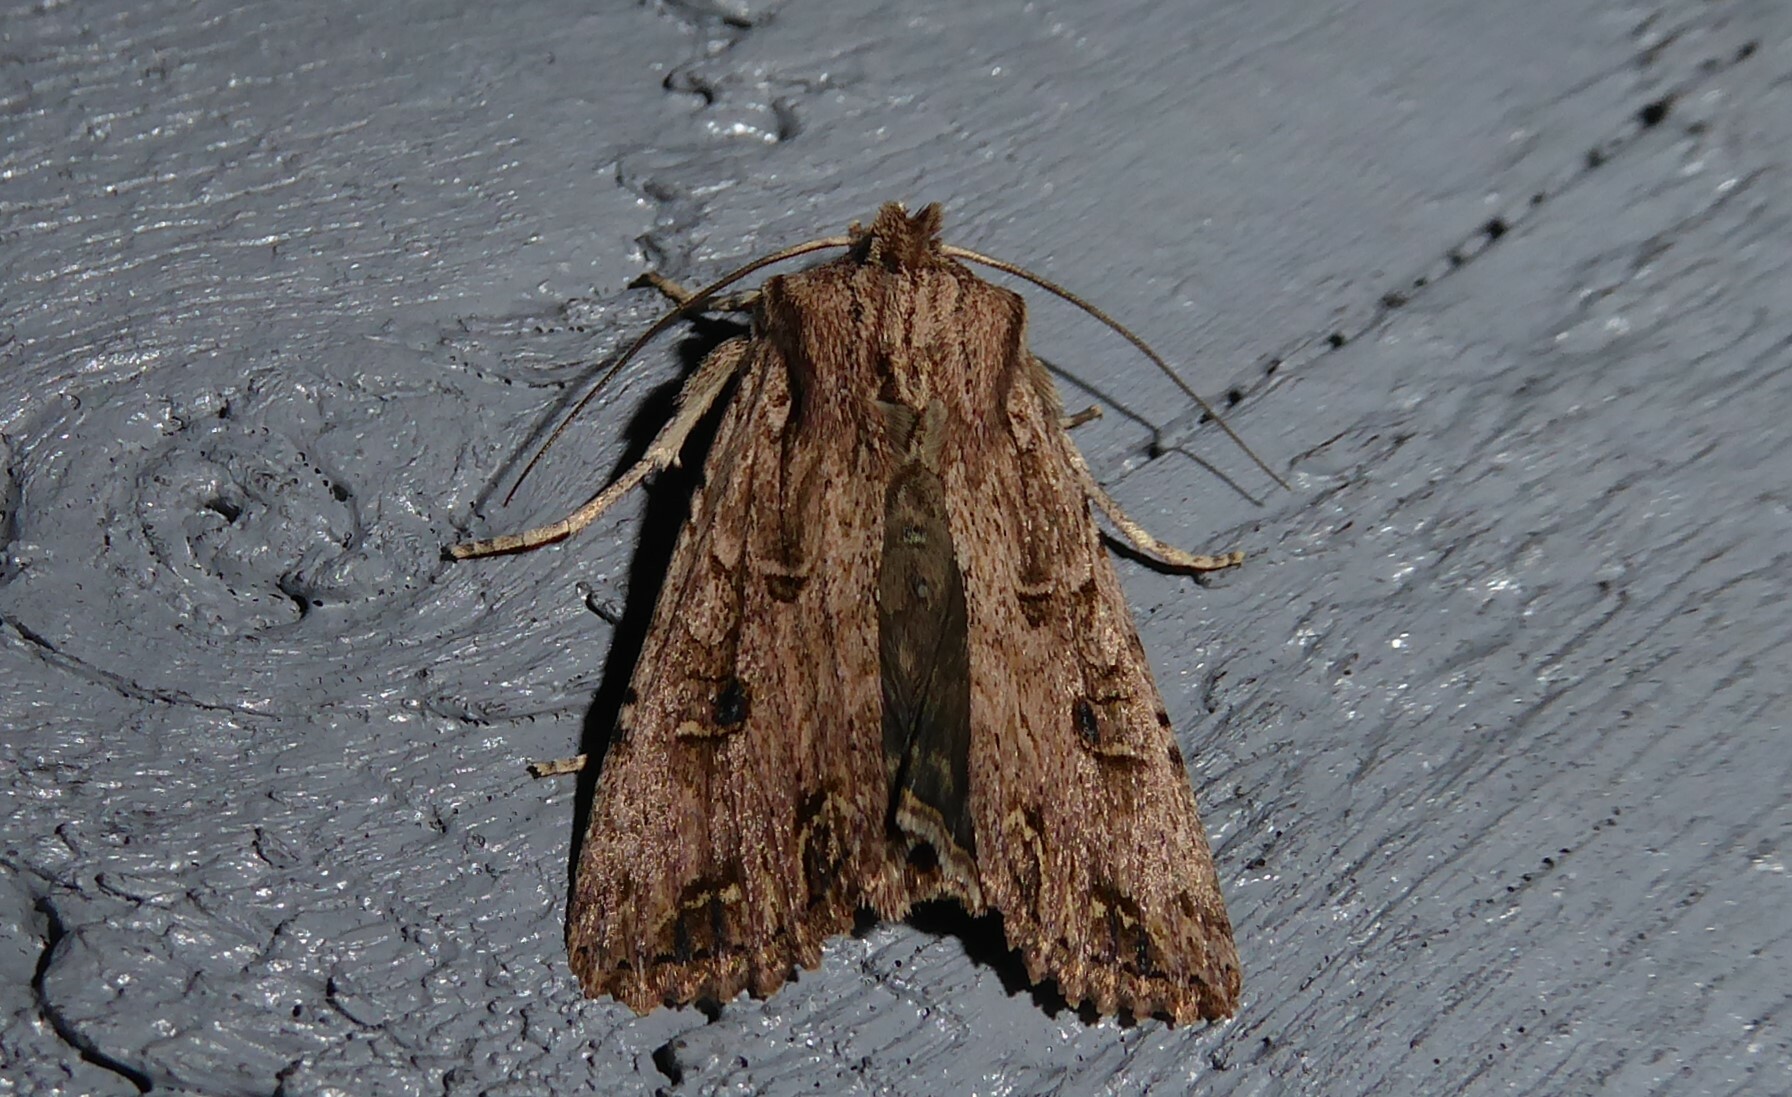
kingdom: Animalia
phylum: Arthropoda
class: Insecta
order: Lepidoptera
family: Noctuidae
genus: Ichneutica
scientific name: Ichneutica lignana
